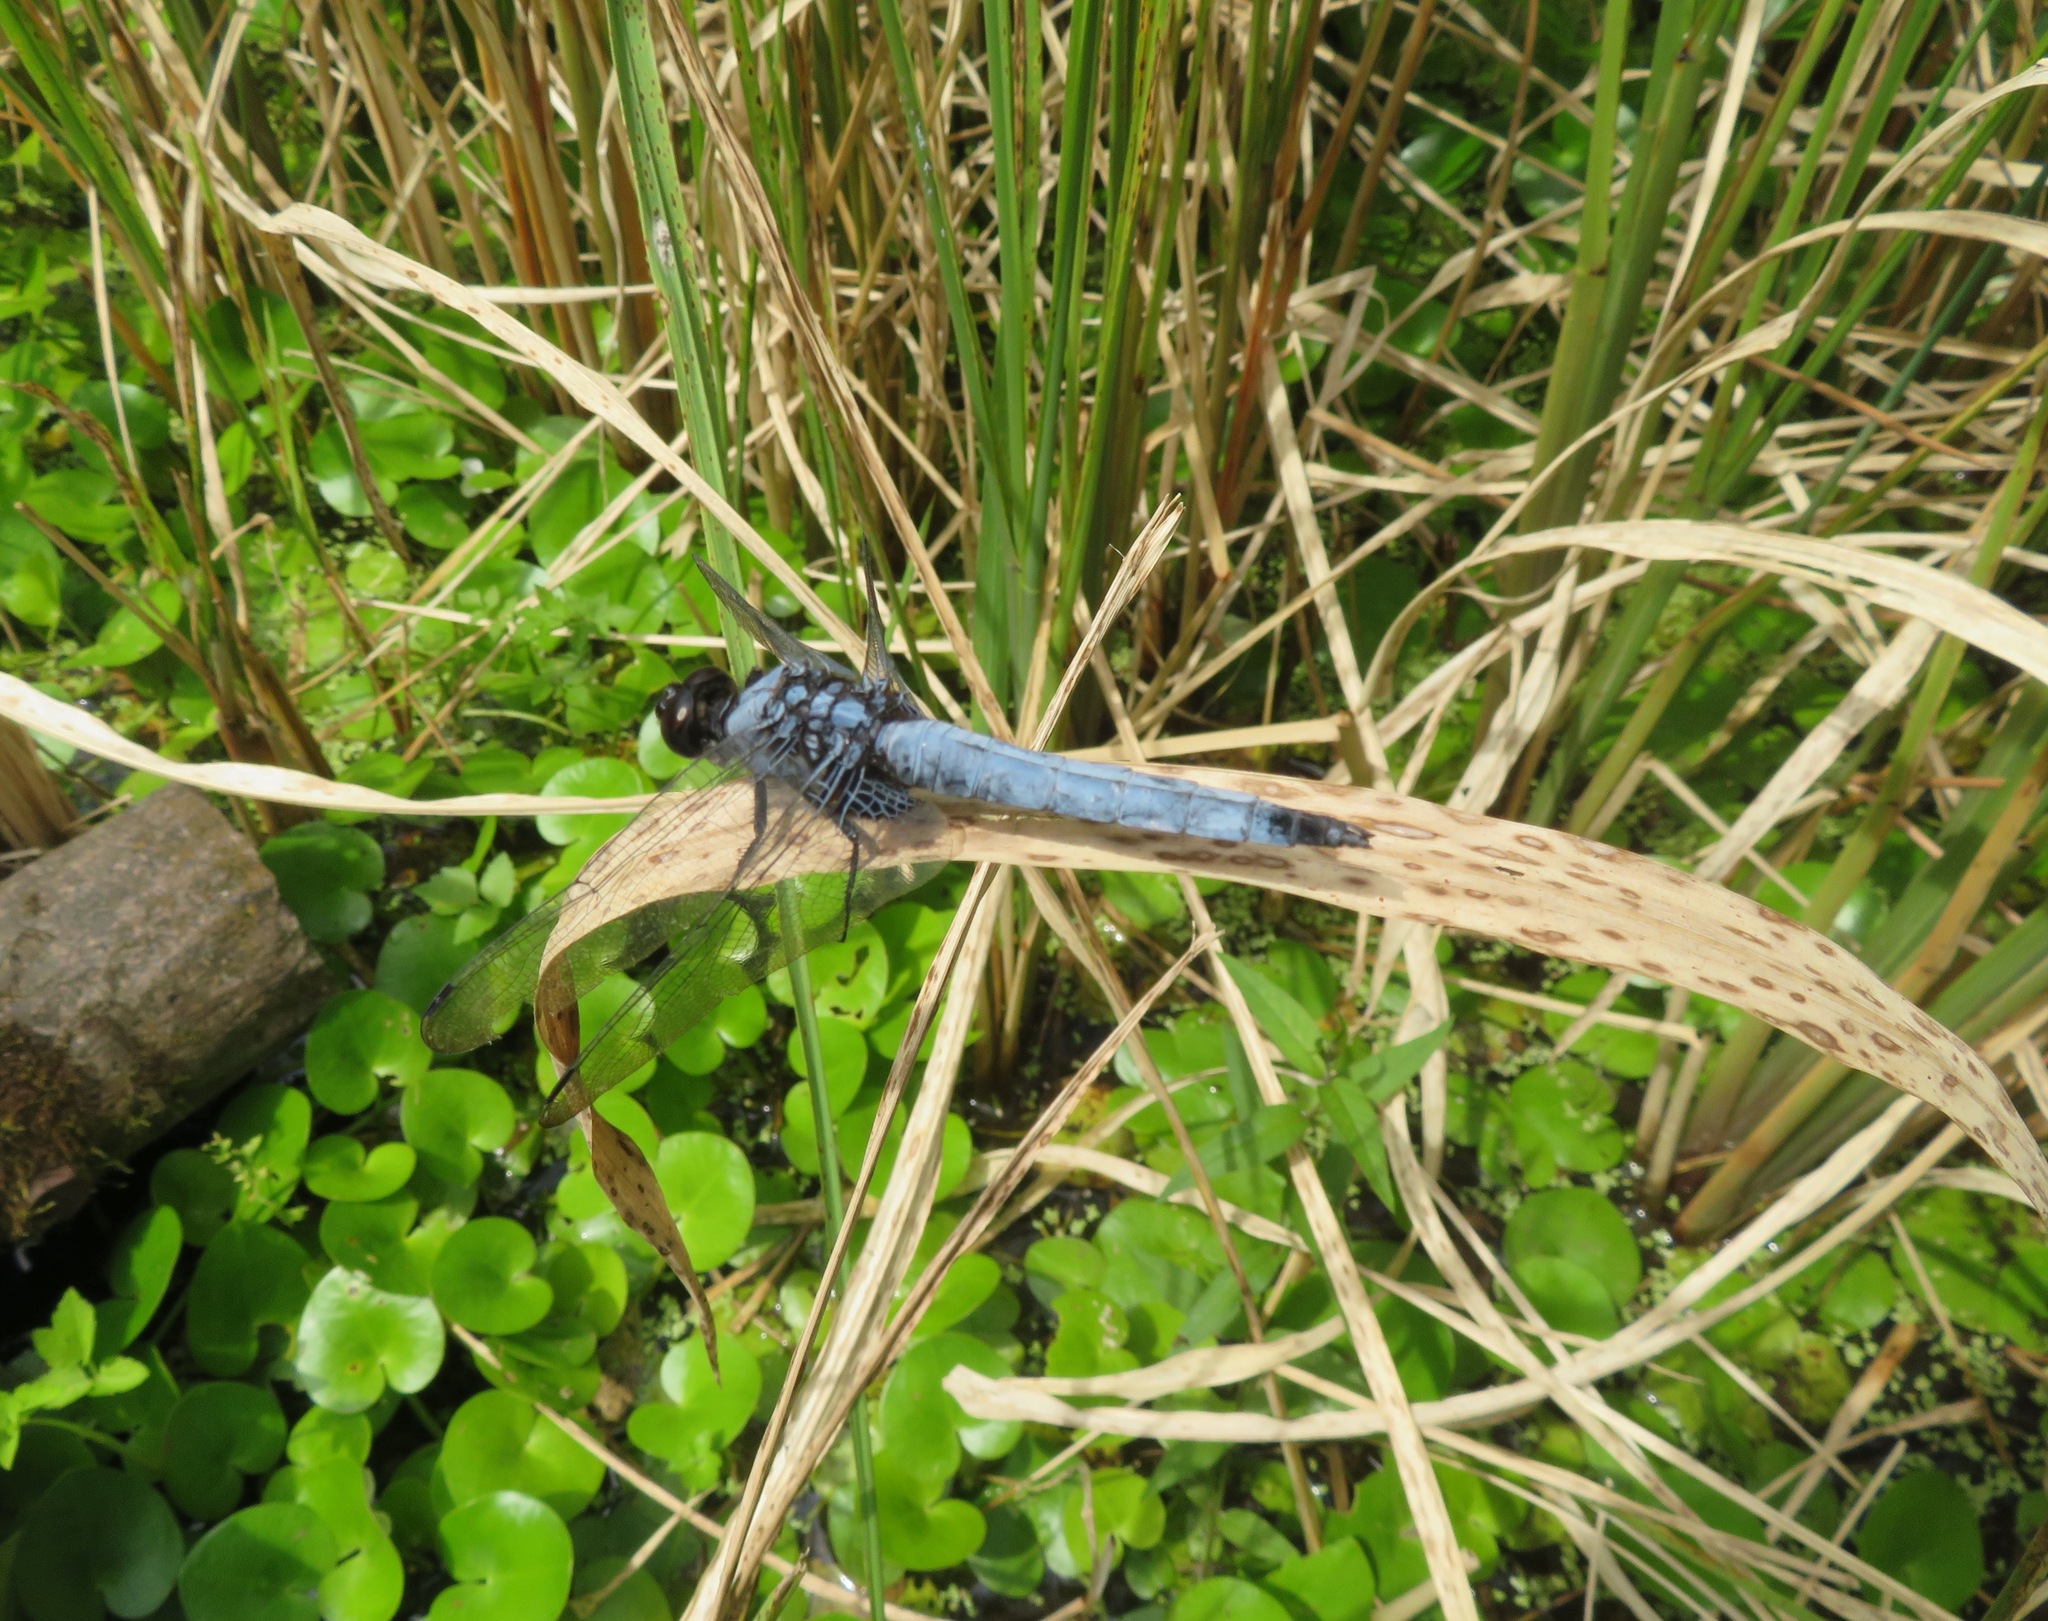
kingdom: Animalia
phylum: Arthropoda
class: Insecta
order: Odonata
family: Libellulidae
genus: Orthetrum
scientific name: Orthetrum melania
